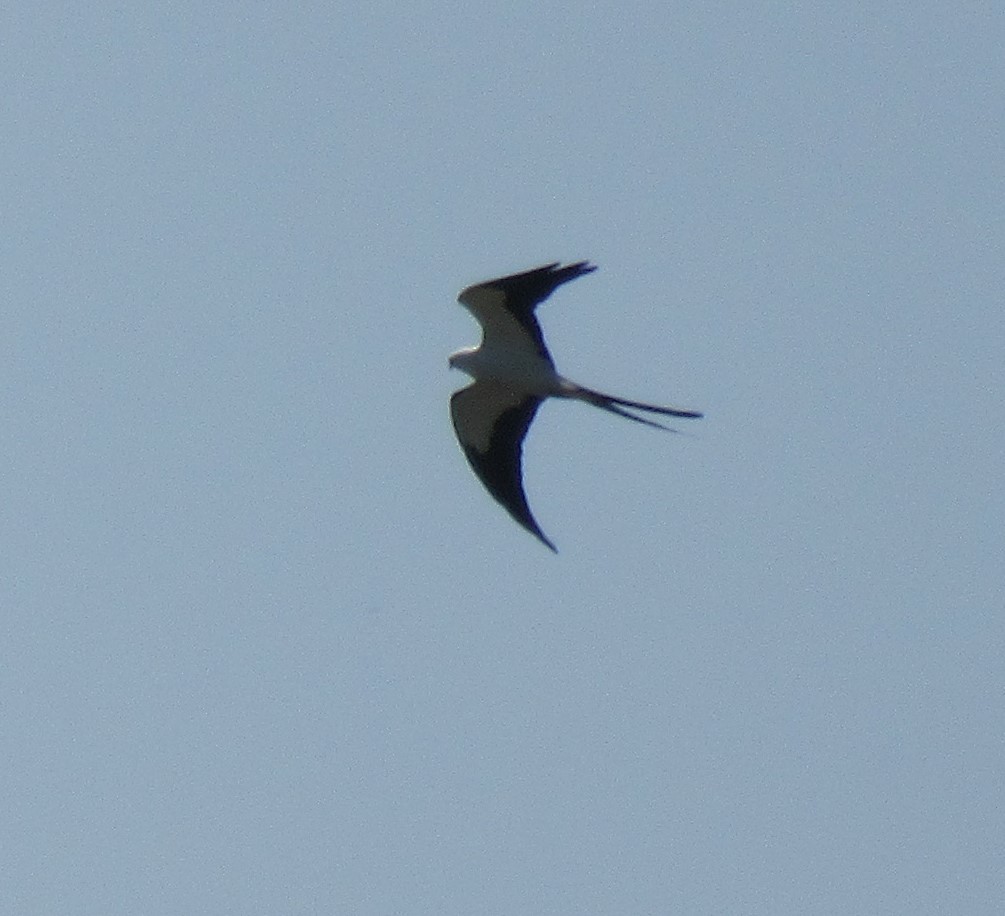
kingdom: Animalia
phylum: Chordata
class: Aves
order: Accipitriformes
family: Accipitridae
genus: Elanoides
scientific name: Elanoides forficatus
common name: Swallow-tailed kite
